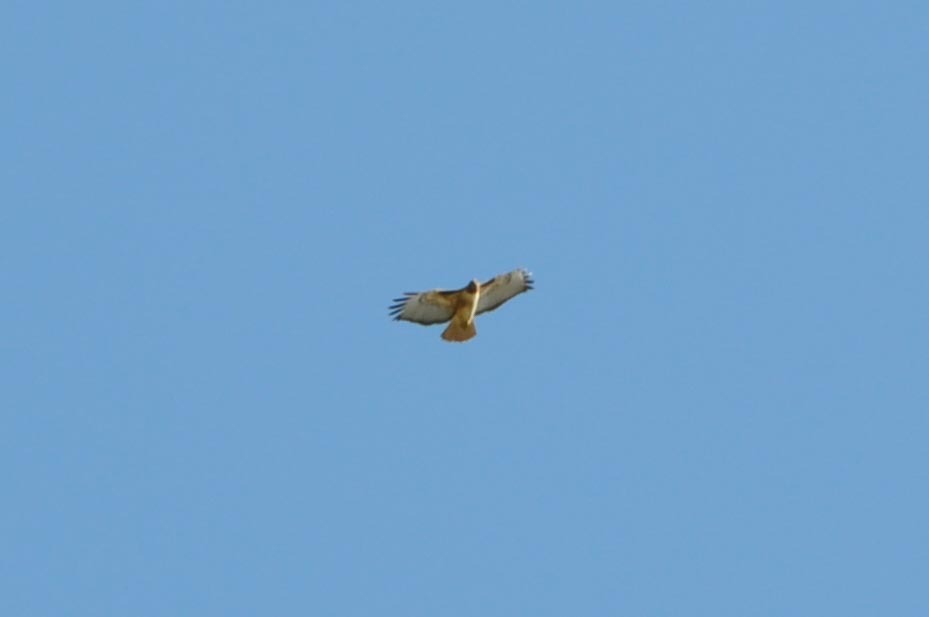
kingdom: Animalia
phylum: Chordata
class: Aves
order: Accipitriformes
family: Accipitridae
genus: Buteo
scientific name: Buteo jamaicensis
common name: Red-tailed hawk
